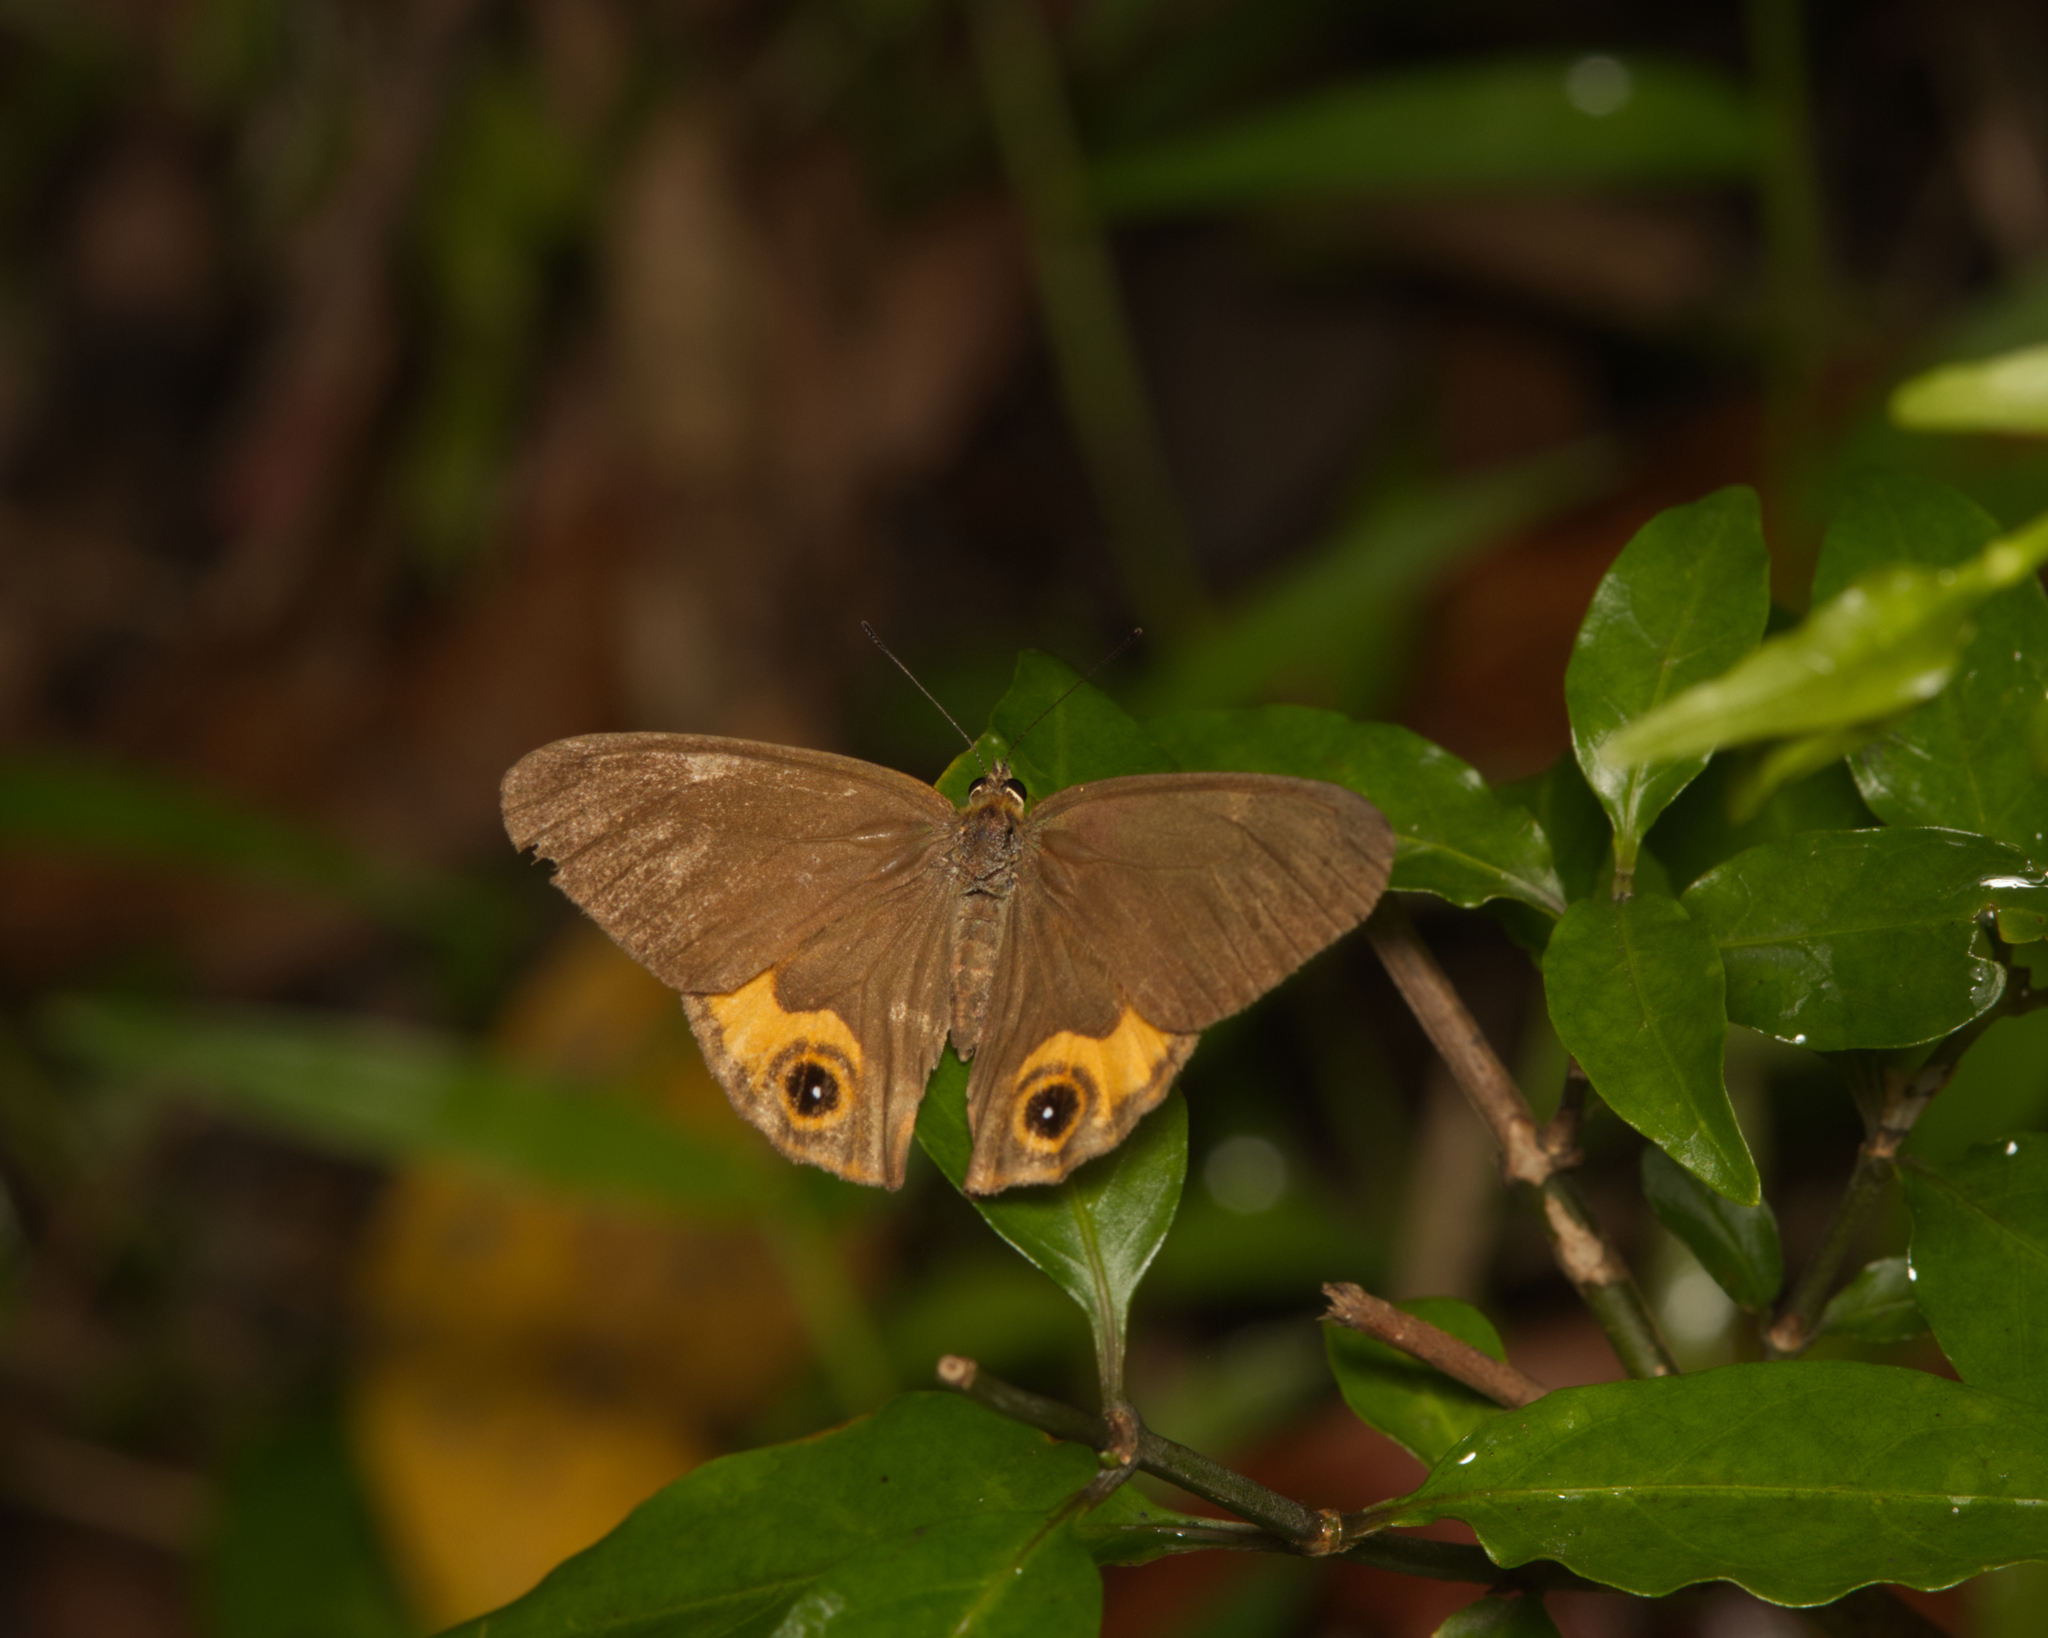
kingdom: Animalia
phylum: Arthropoda
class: Insecta
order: Lepidoptera
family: Nymphalidae
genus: Hypocysta
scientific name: Hypocysta metirius
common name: Brown ringlet
